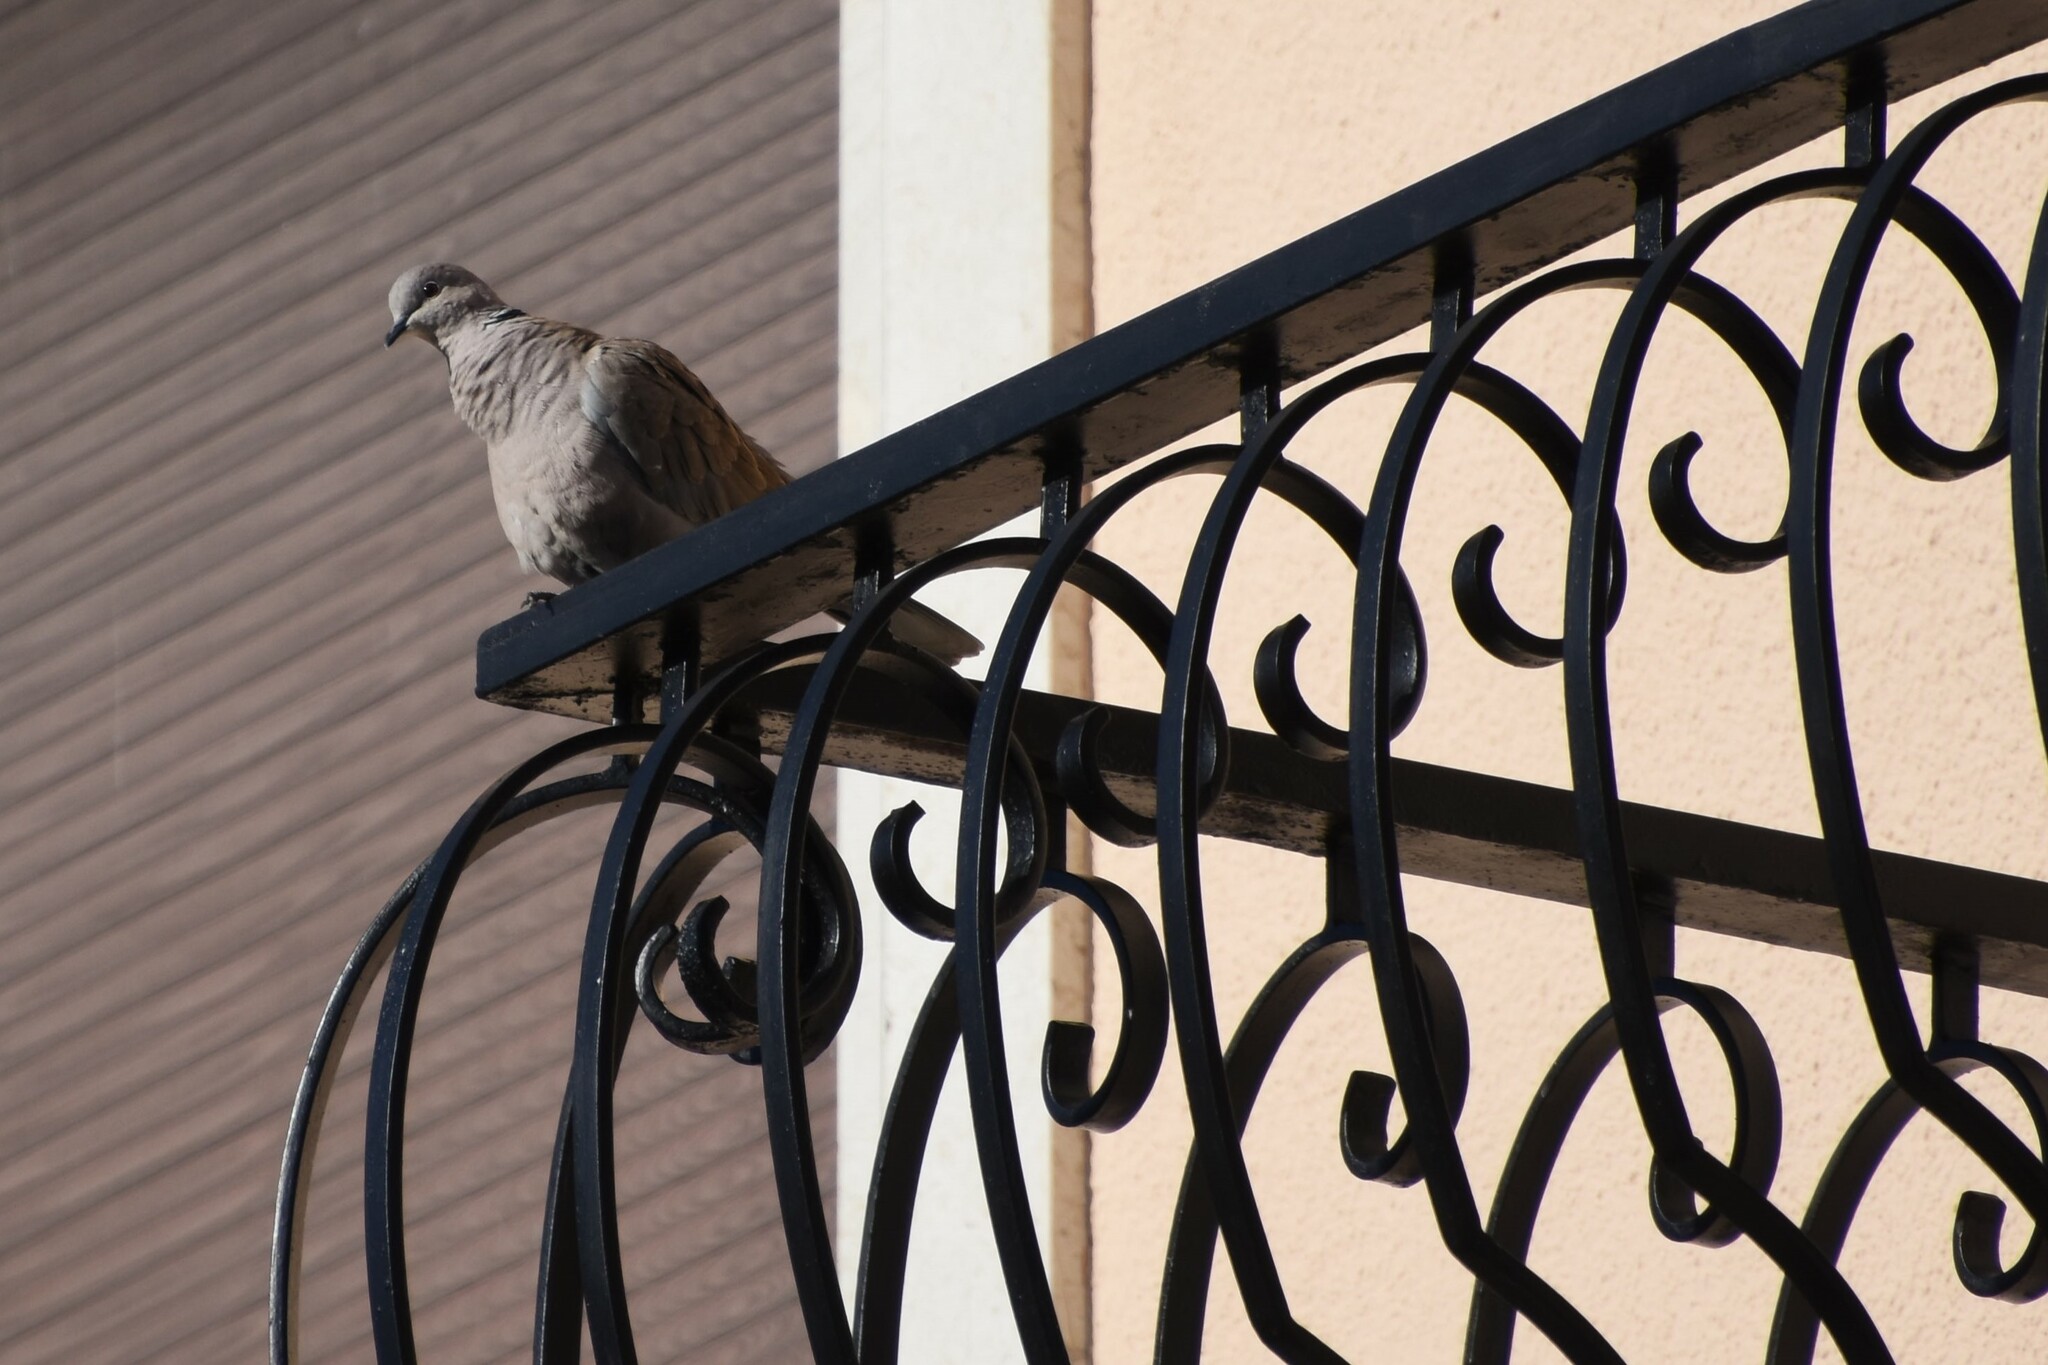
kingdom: Animalia
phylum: Chordata
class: Aves
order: Columbiformes
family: Columbidae
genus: Streptopelia
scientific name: Streptopelia decaocto
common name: Eurasian collared dove
